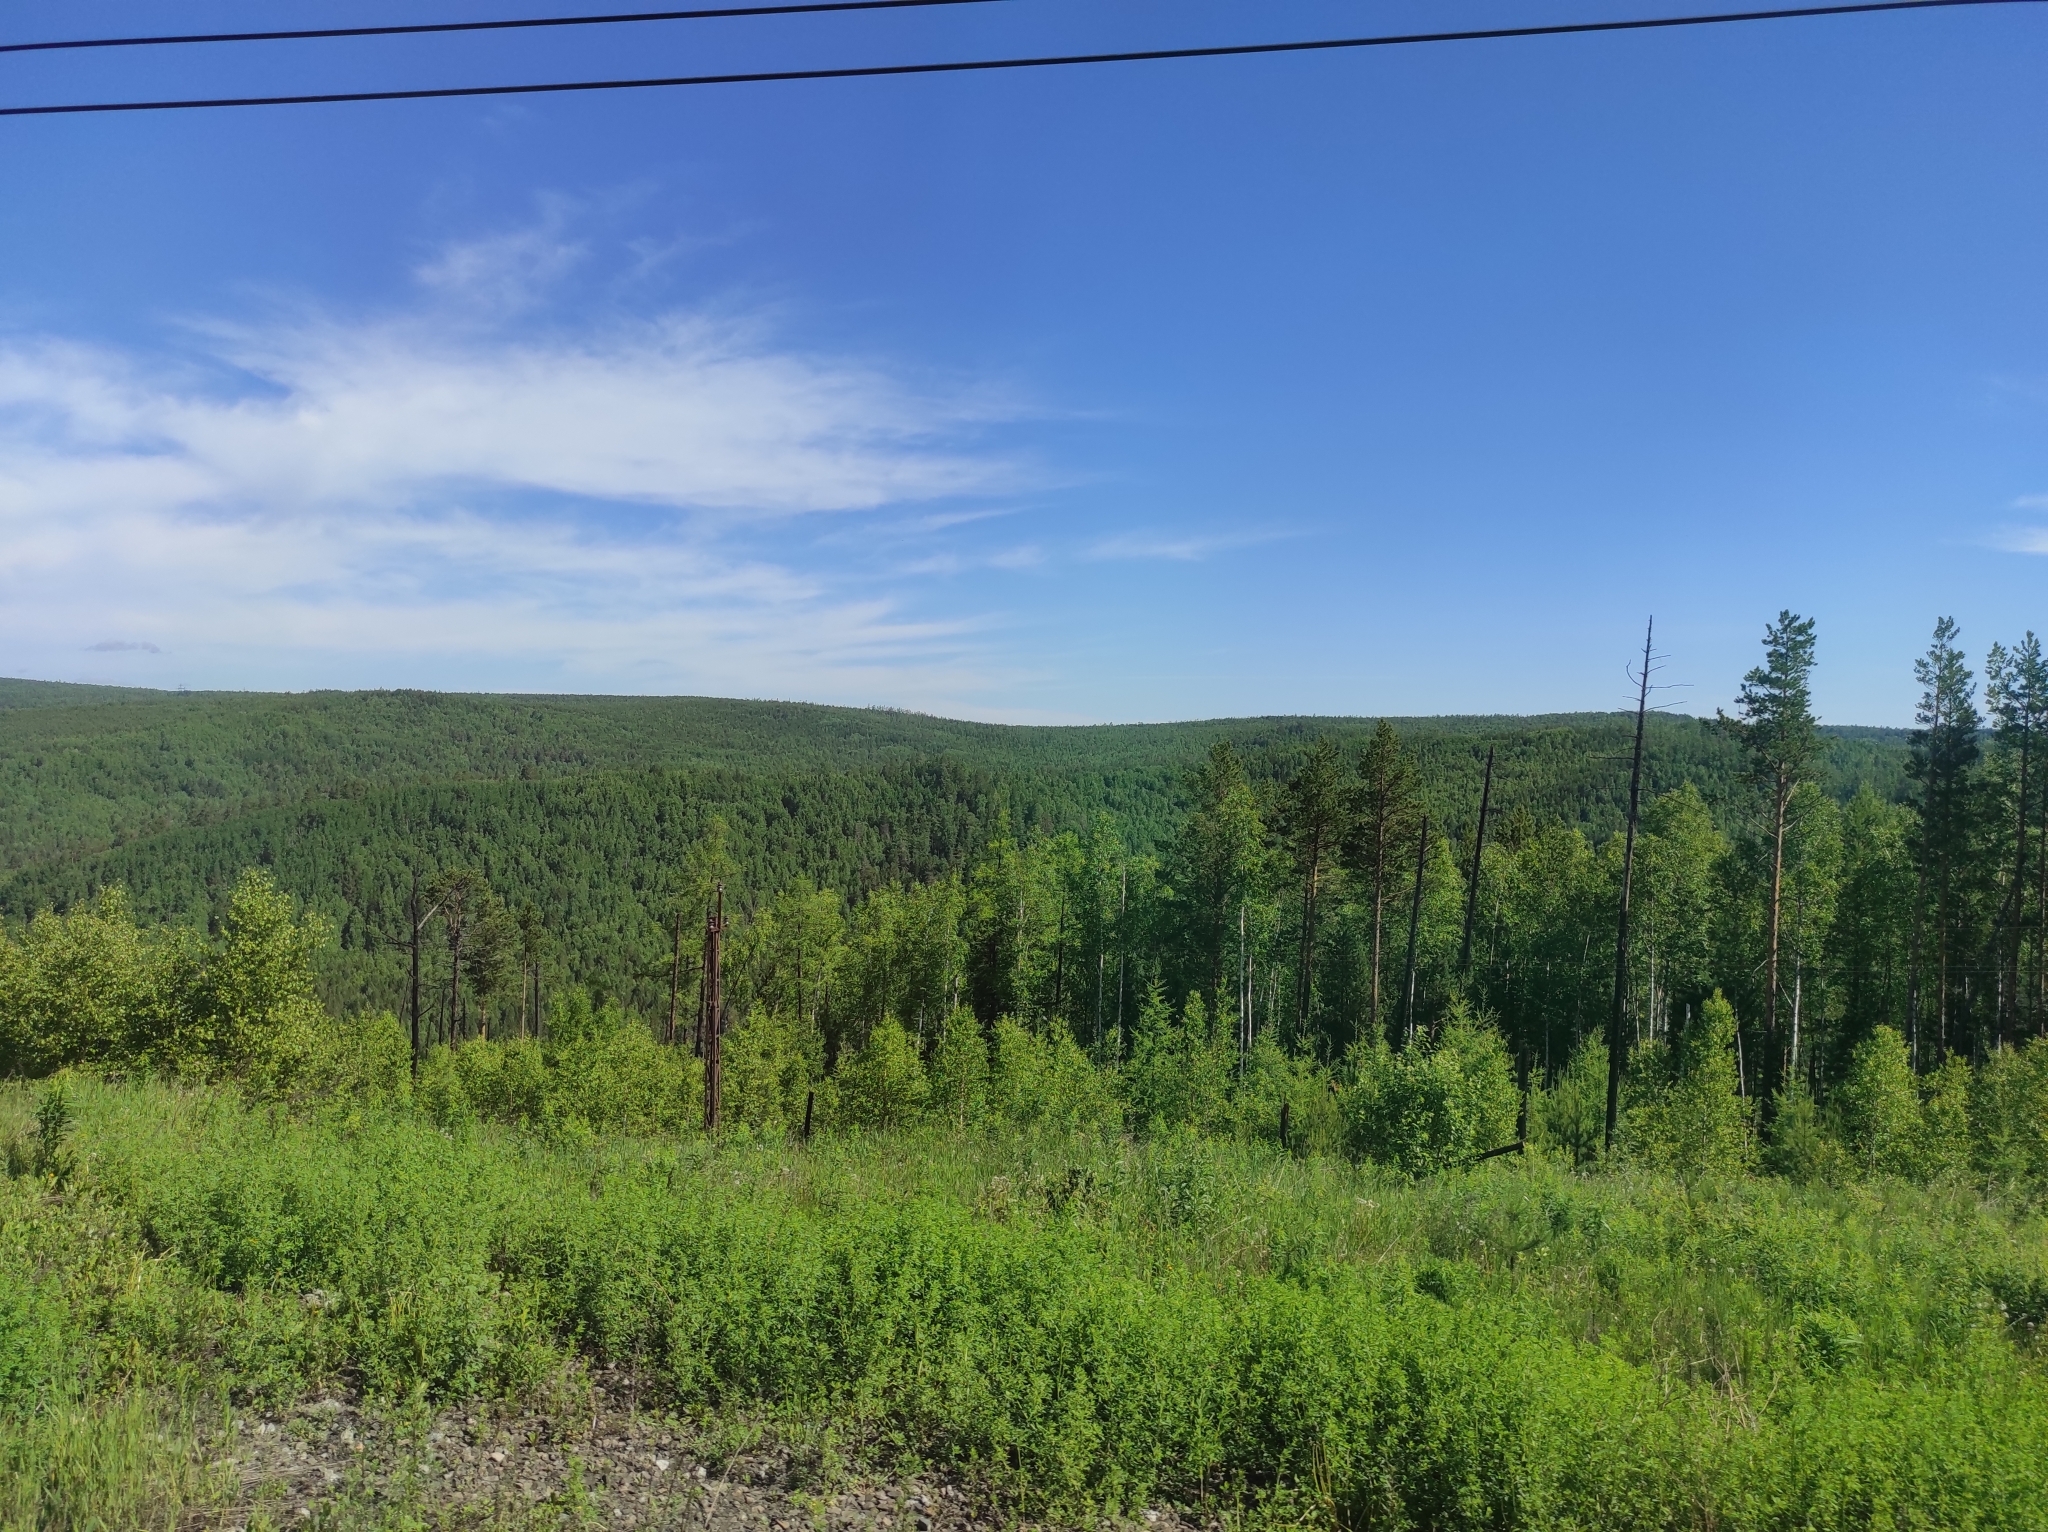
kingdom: Plantae
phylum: Tracheophyta
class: Pinopsida
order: Pinales
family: Pinaceae
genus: Larix
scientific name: Larix sibirica
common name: Siberian larch
